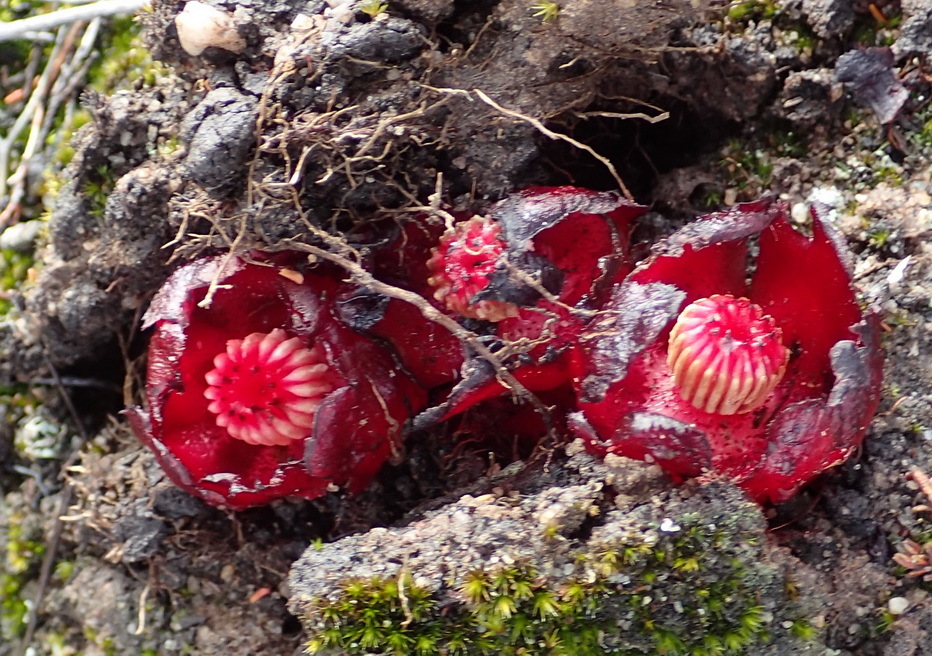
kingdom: Plantae
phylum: Tracheophyta
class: Magnoliopsida
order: Malvales
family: Cytinaceae
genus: Cytinus
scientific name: Cytinus sanguineus
